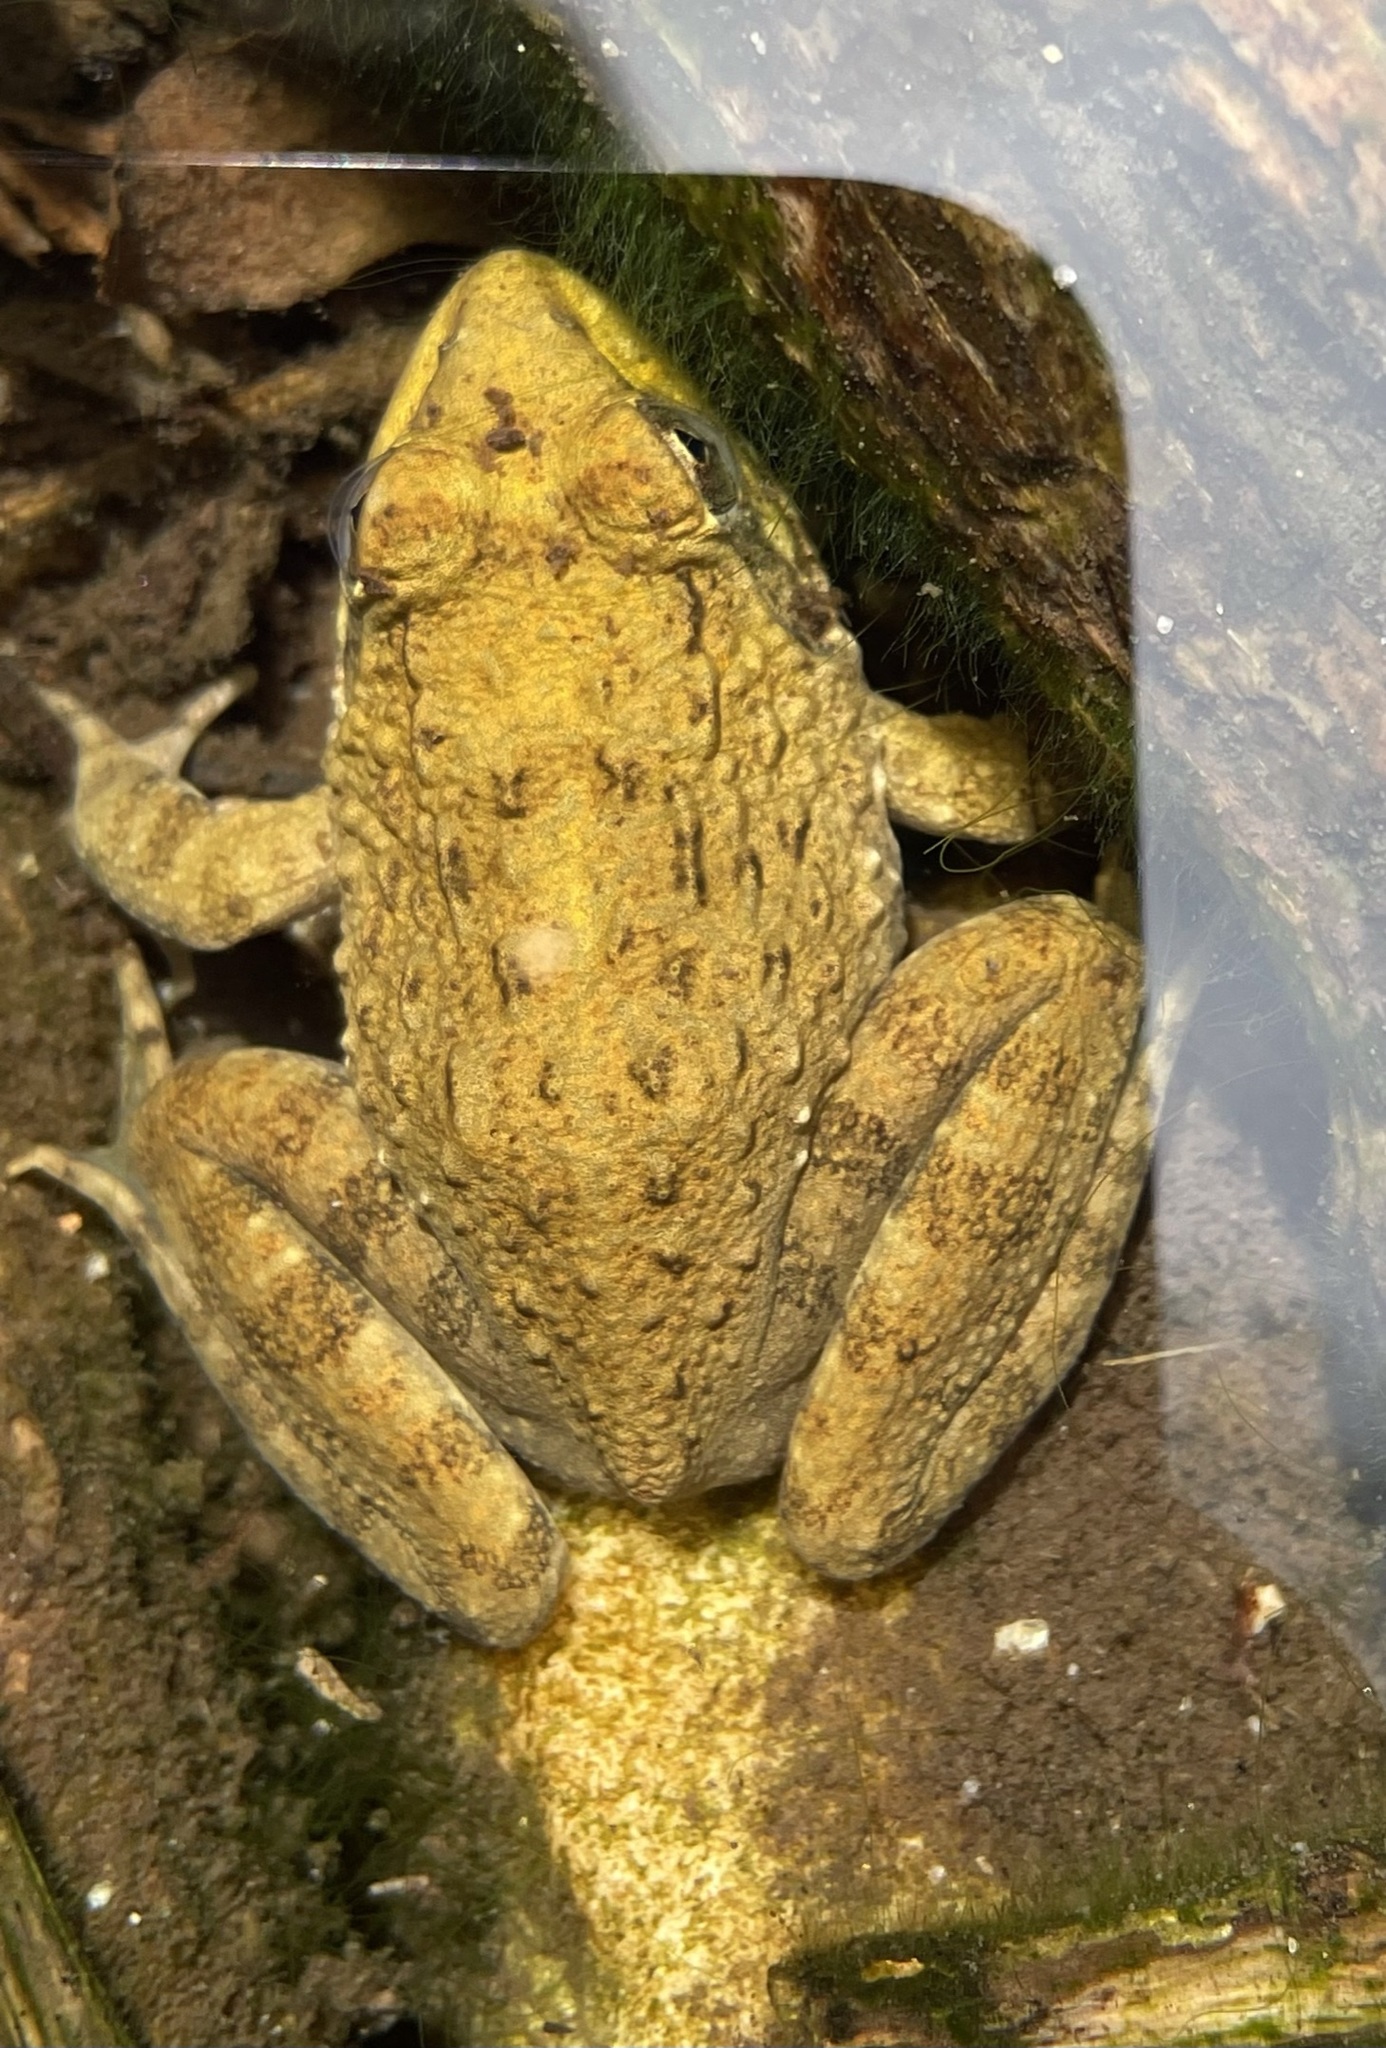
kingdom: Animalia
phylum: Chordata
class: Amphibia
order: Anura
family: Pyxicephalidae
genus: Amietia
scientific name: Amietia fuscigula
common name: Cape rana
